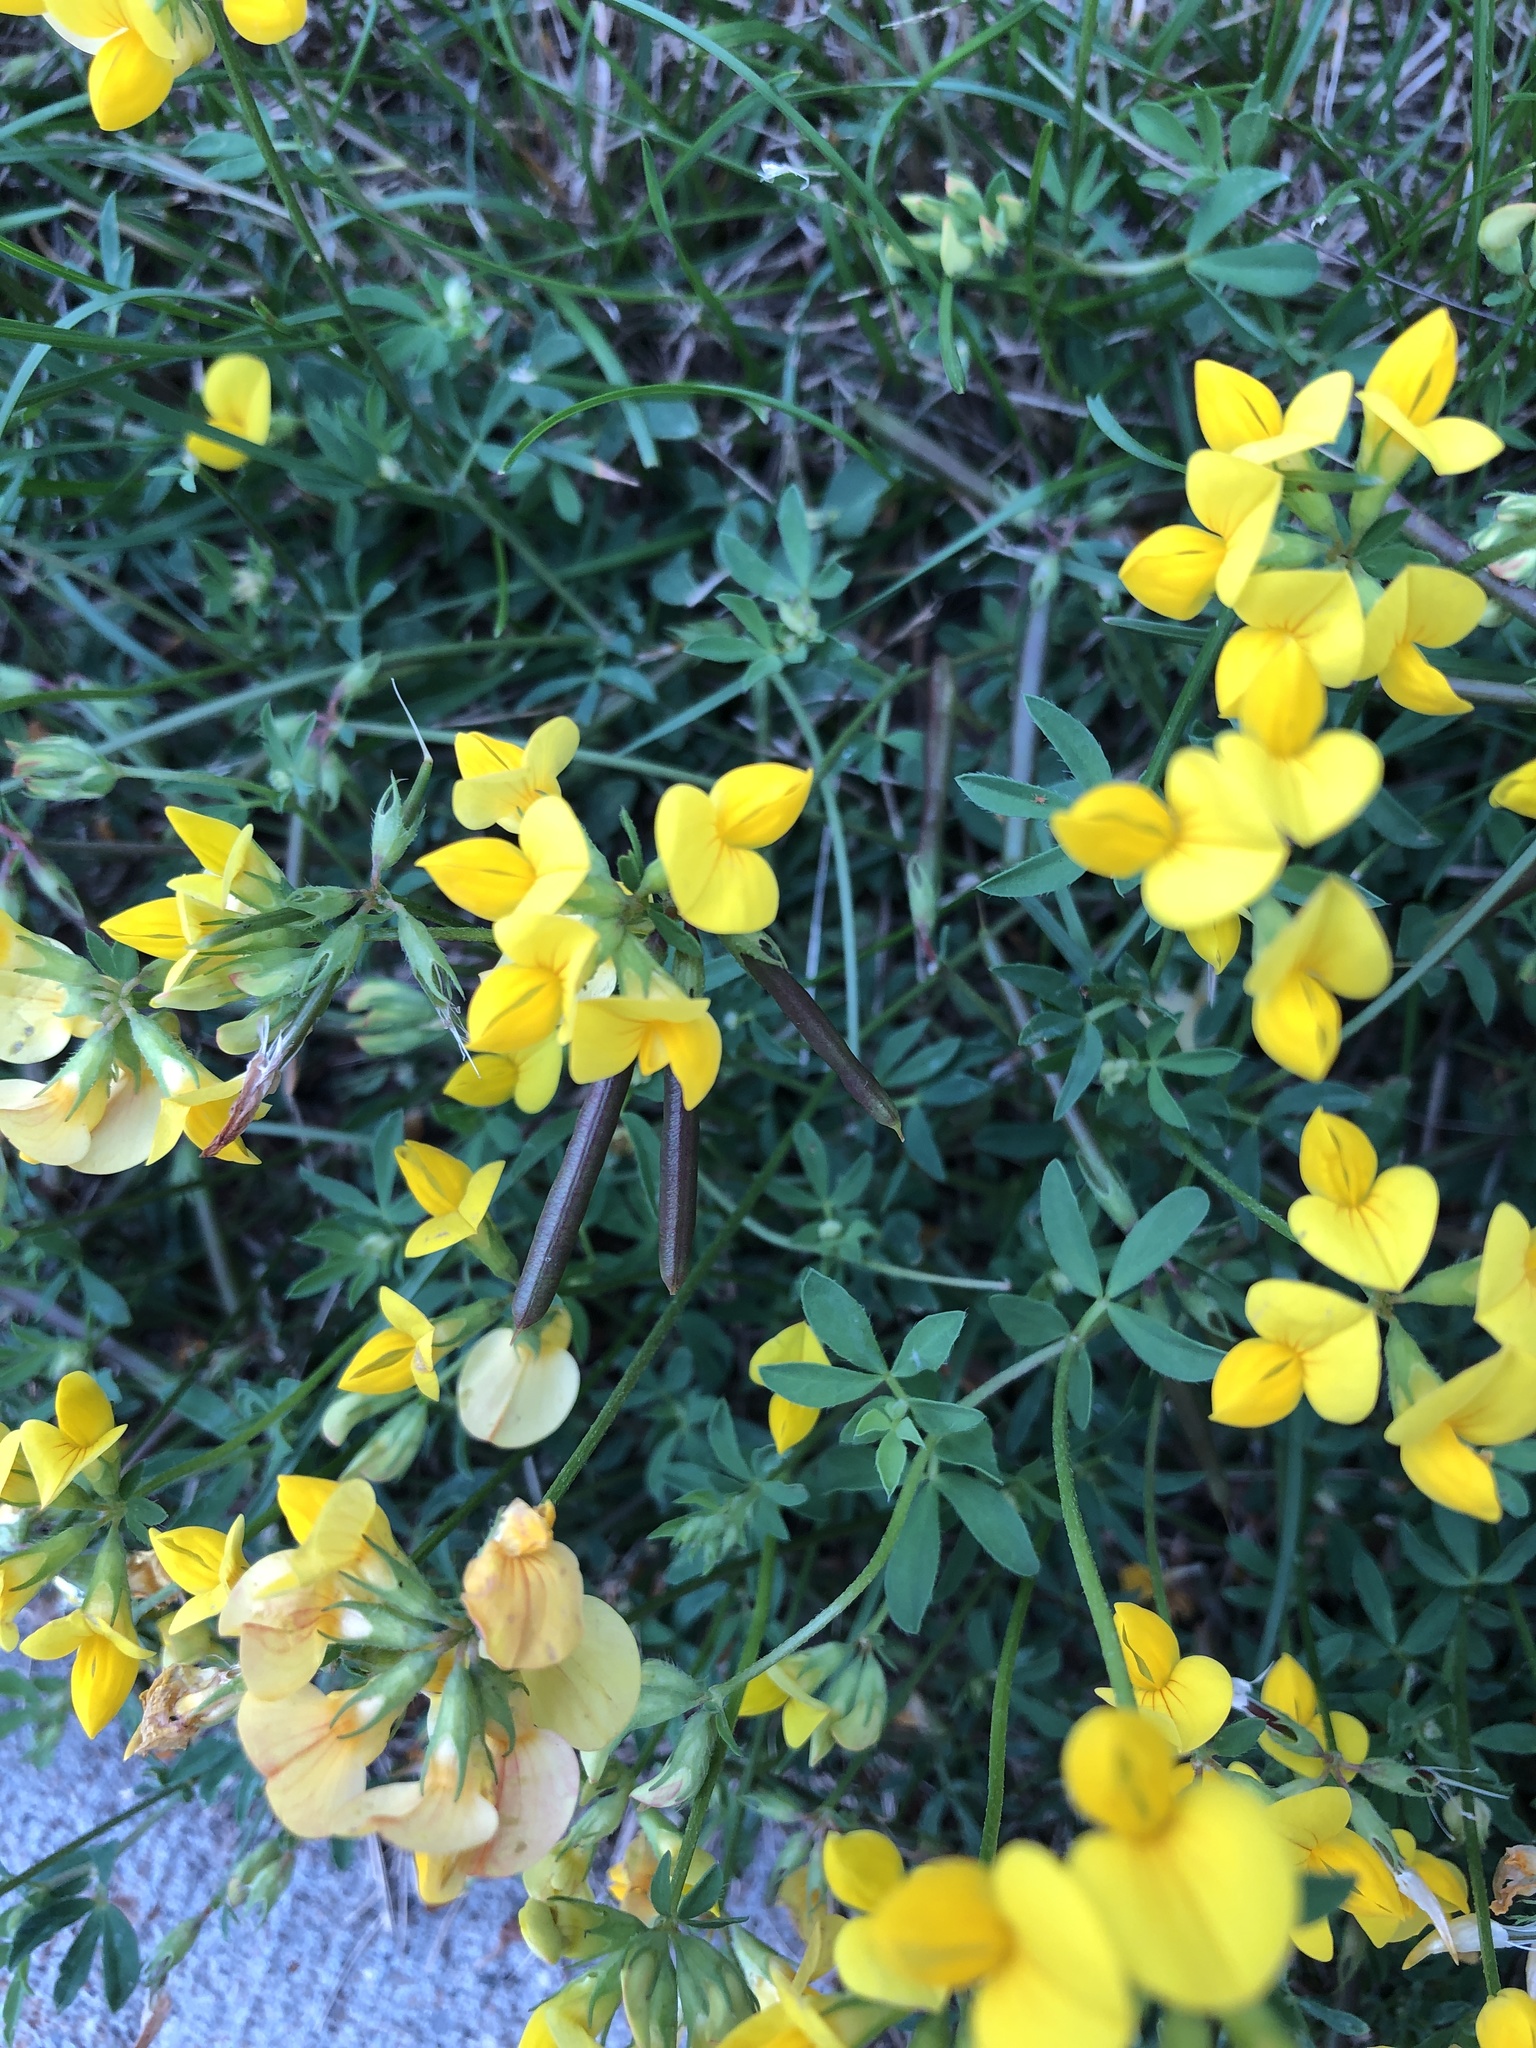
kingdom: Plantae
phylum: Tracheophyta
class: Magnoliopsida
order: Fabales
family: Fabaceae
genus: Lotus
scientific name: Lotus corniculatus
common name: Common bird's-foot-trefoil
